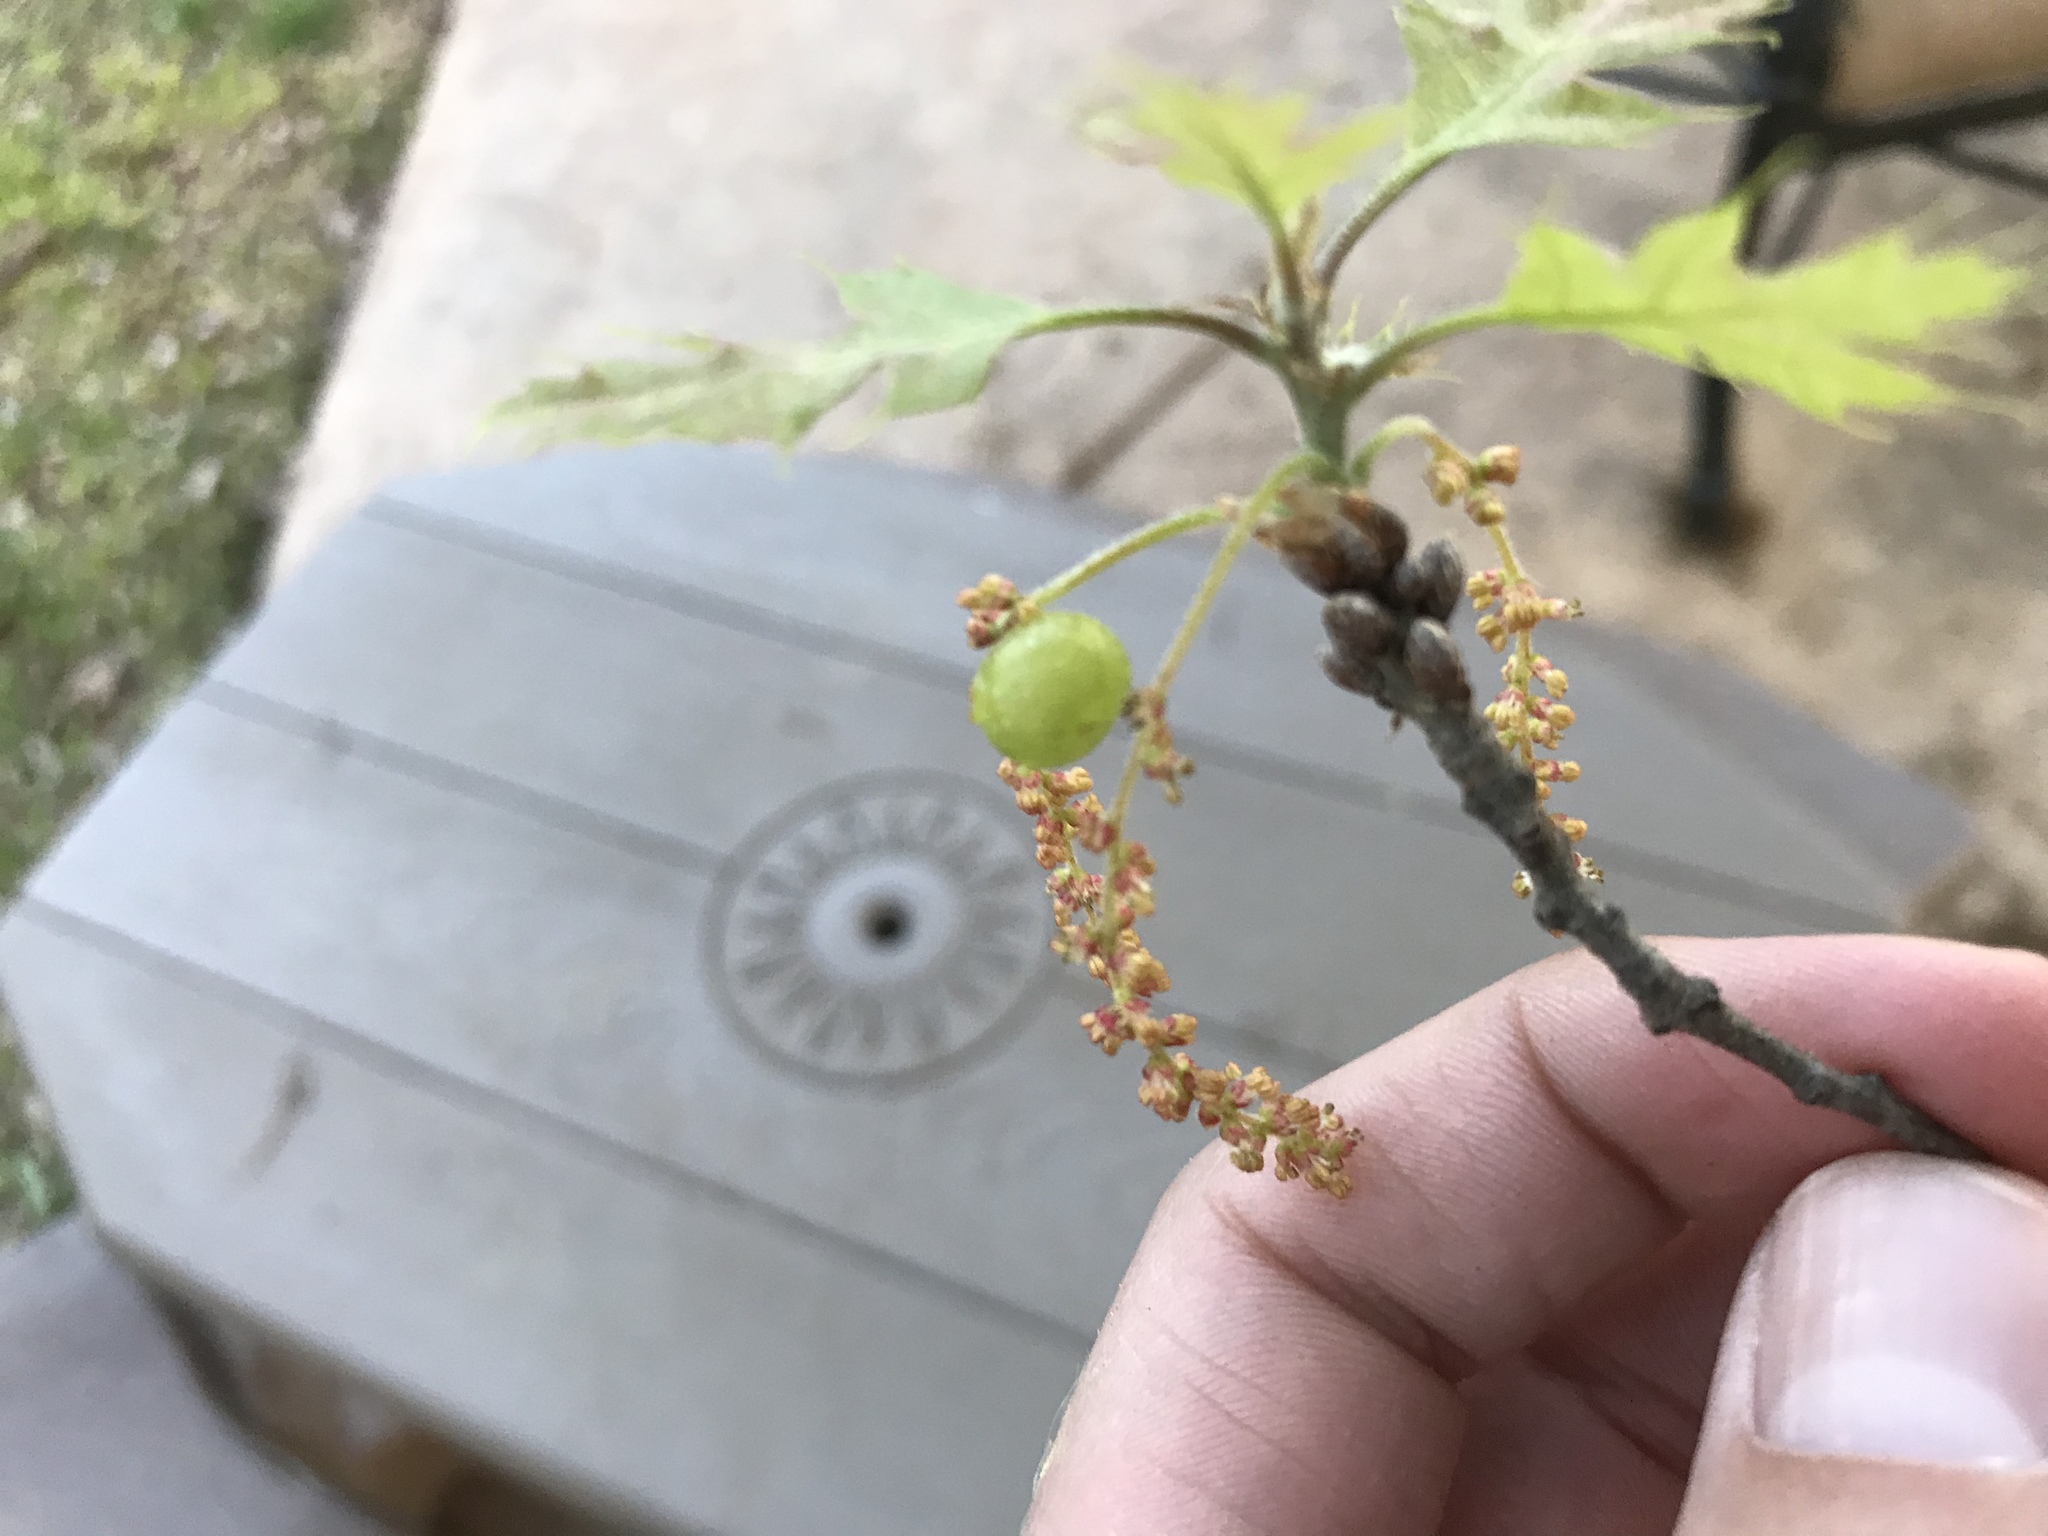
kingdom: Animalia
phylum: Arthropoda
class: Insecta
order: Hymenoptera
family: Cynipidae
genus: Dryocosmus
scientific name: Dryocosmus quercuspalustris
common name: Succulent oak gall wasp
